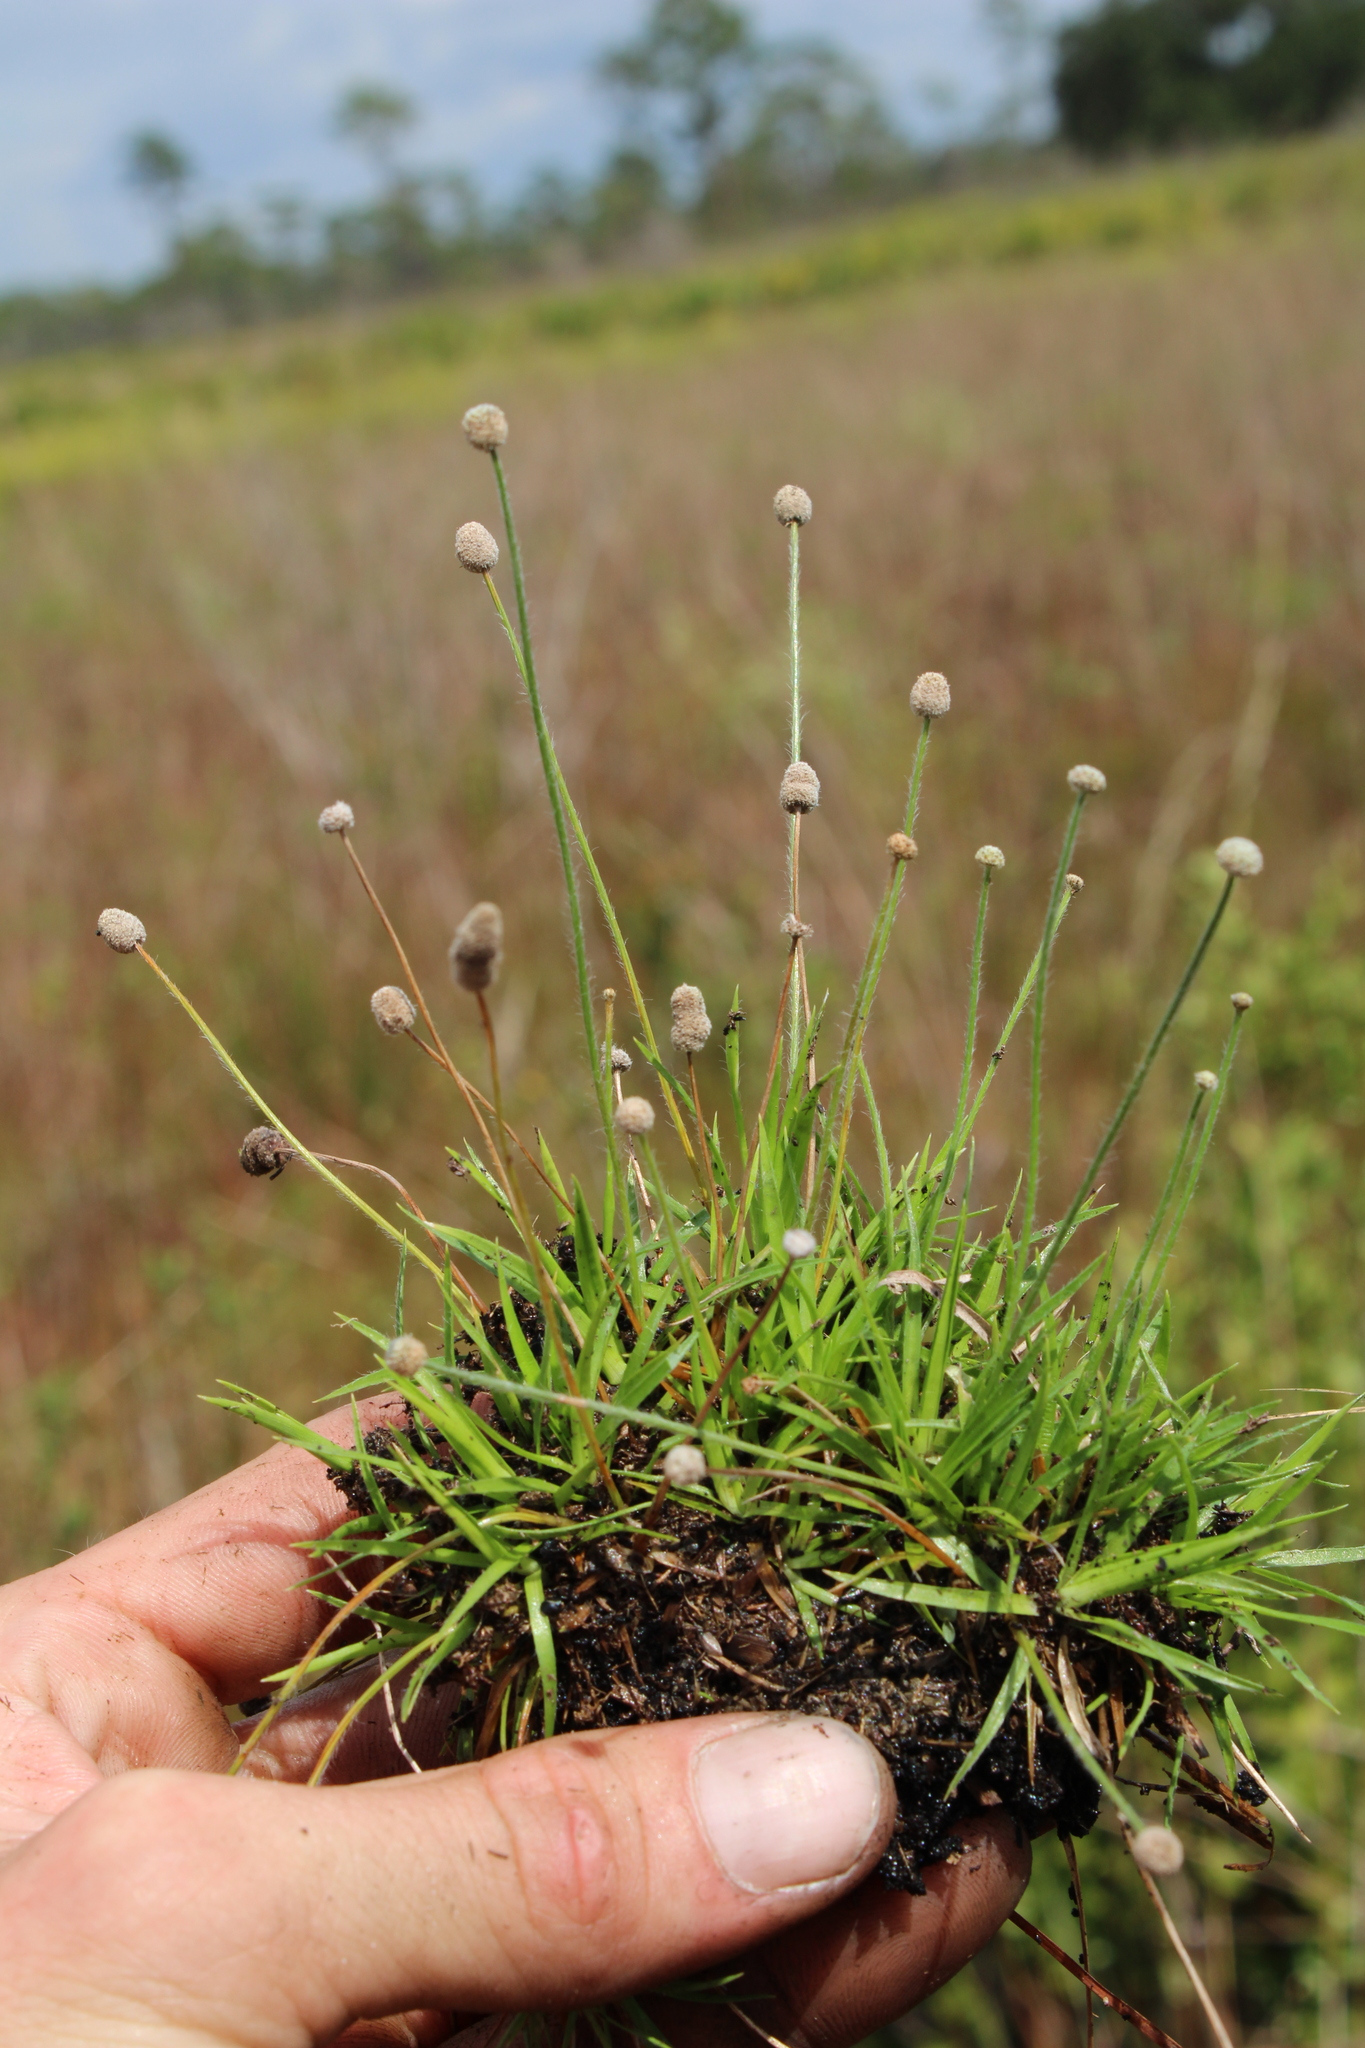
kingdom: Plantae
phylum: Tracheophyta
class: Liliopsida
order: Poales
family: Eriocaulaceae
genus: Paepalanthus
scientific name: Paepalanthus minus
